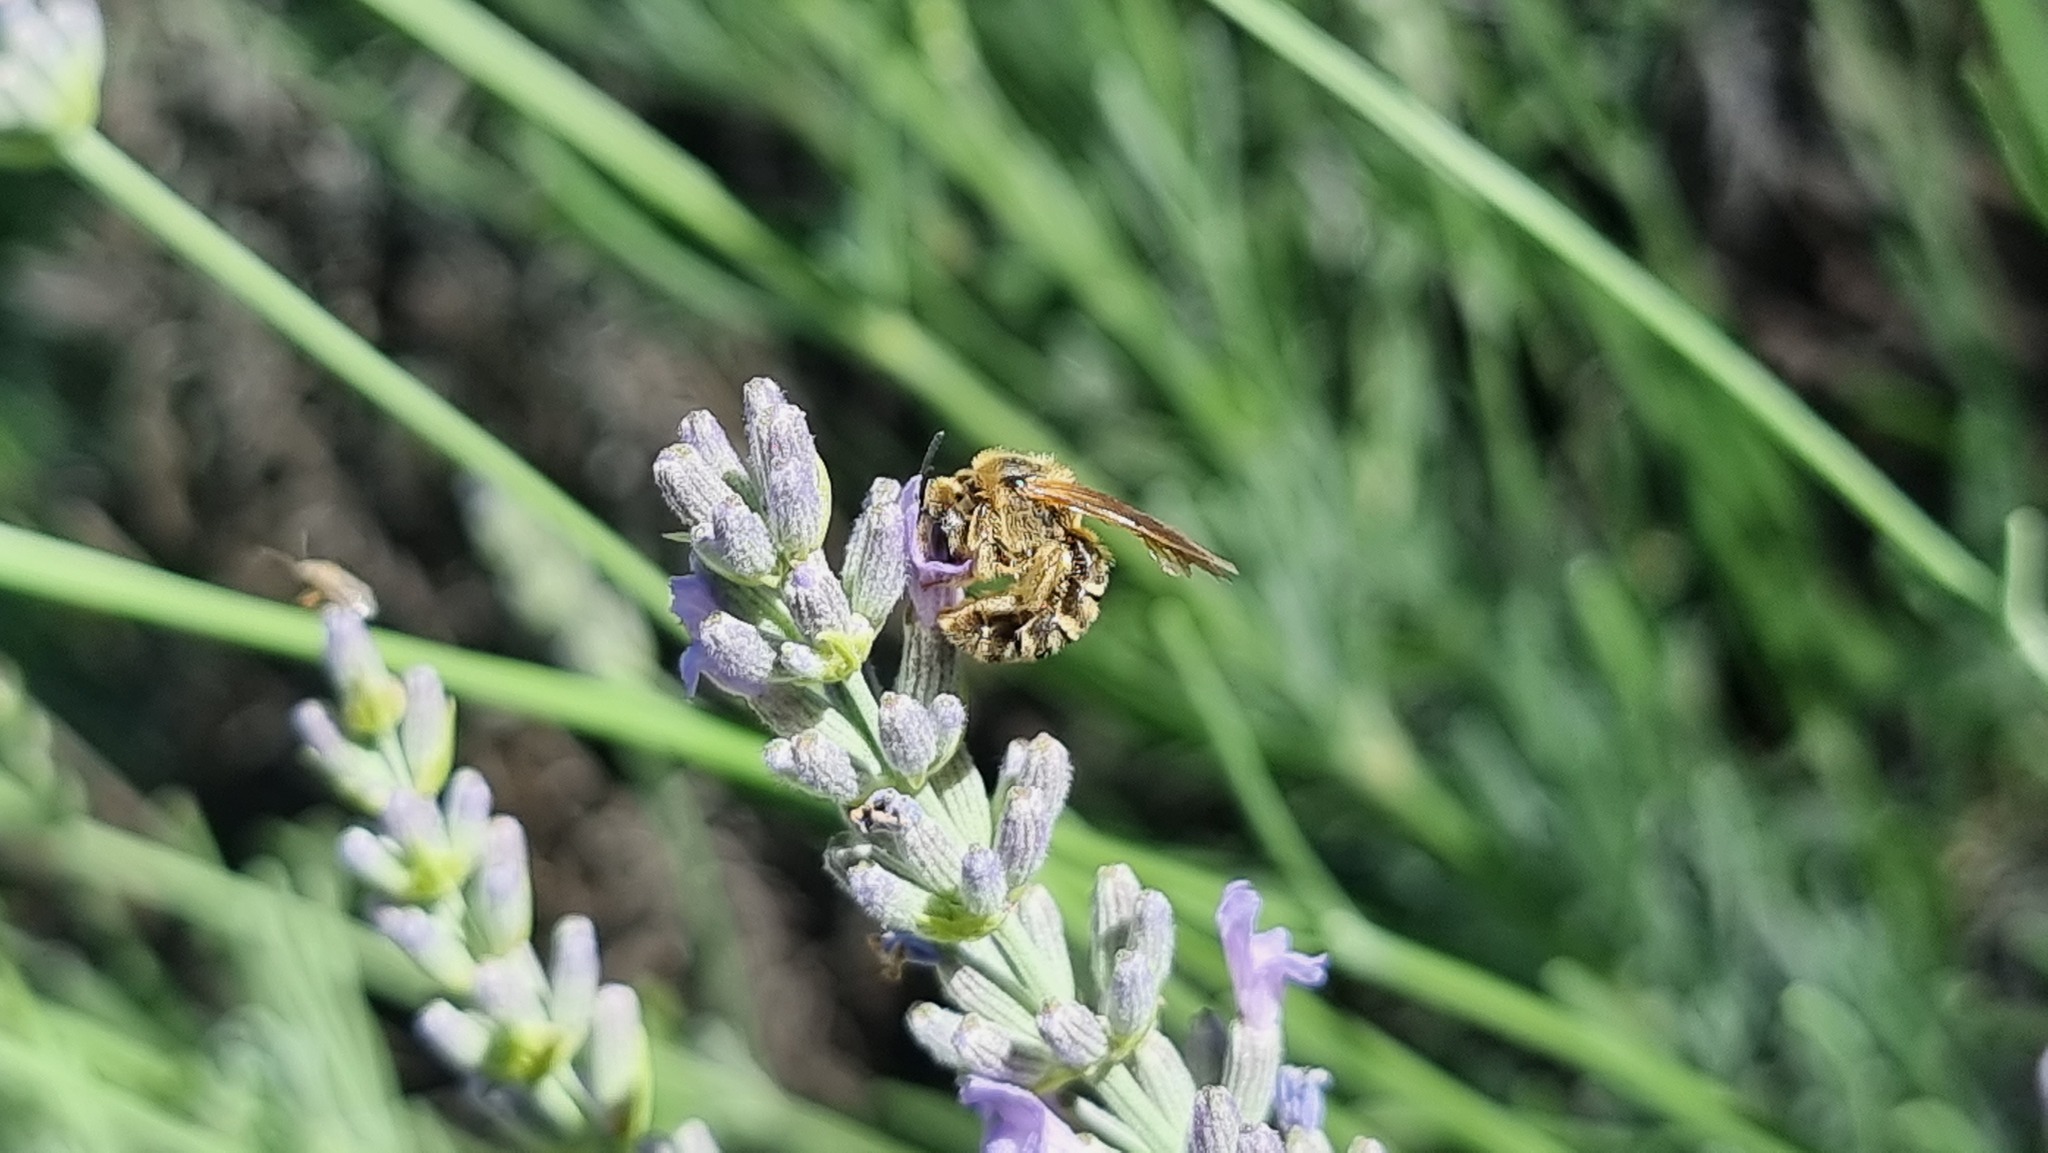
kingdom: Animalia
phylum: Arthropoda
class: Insecta
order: Hymenoptera
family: Halictidae
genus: Halictus
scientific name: Halictus scabiosae
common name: Great banded furrow bee
